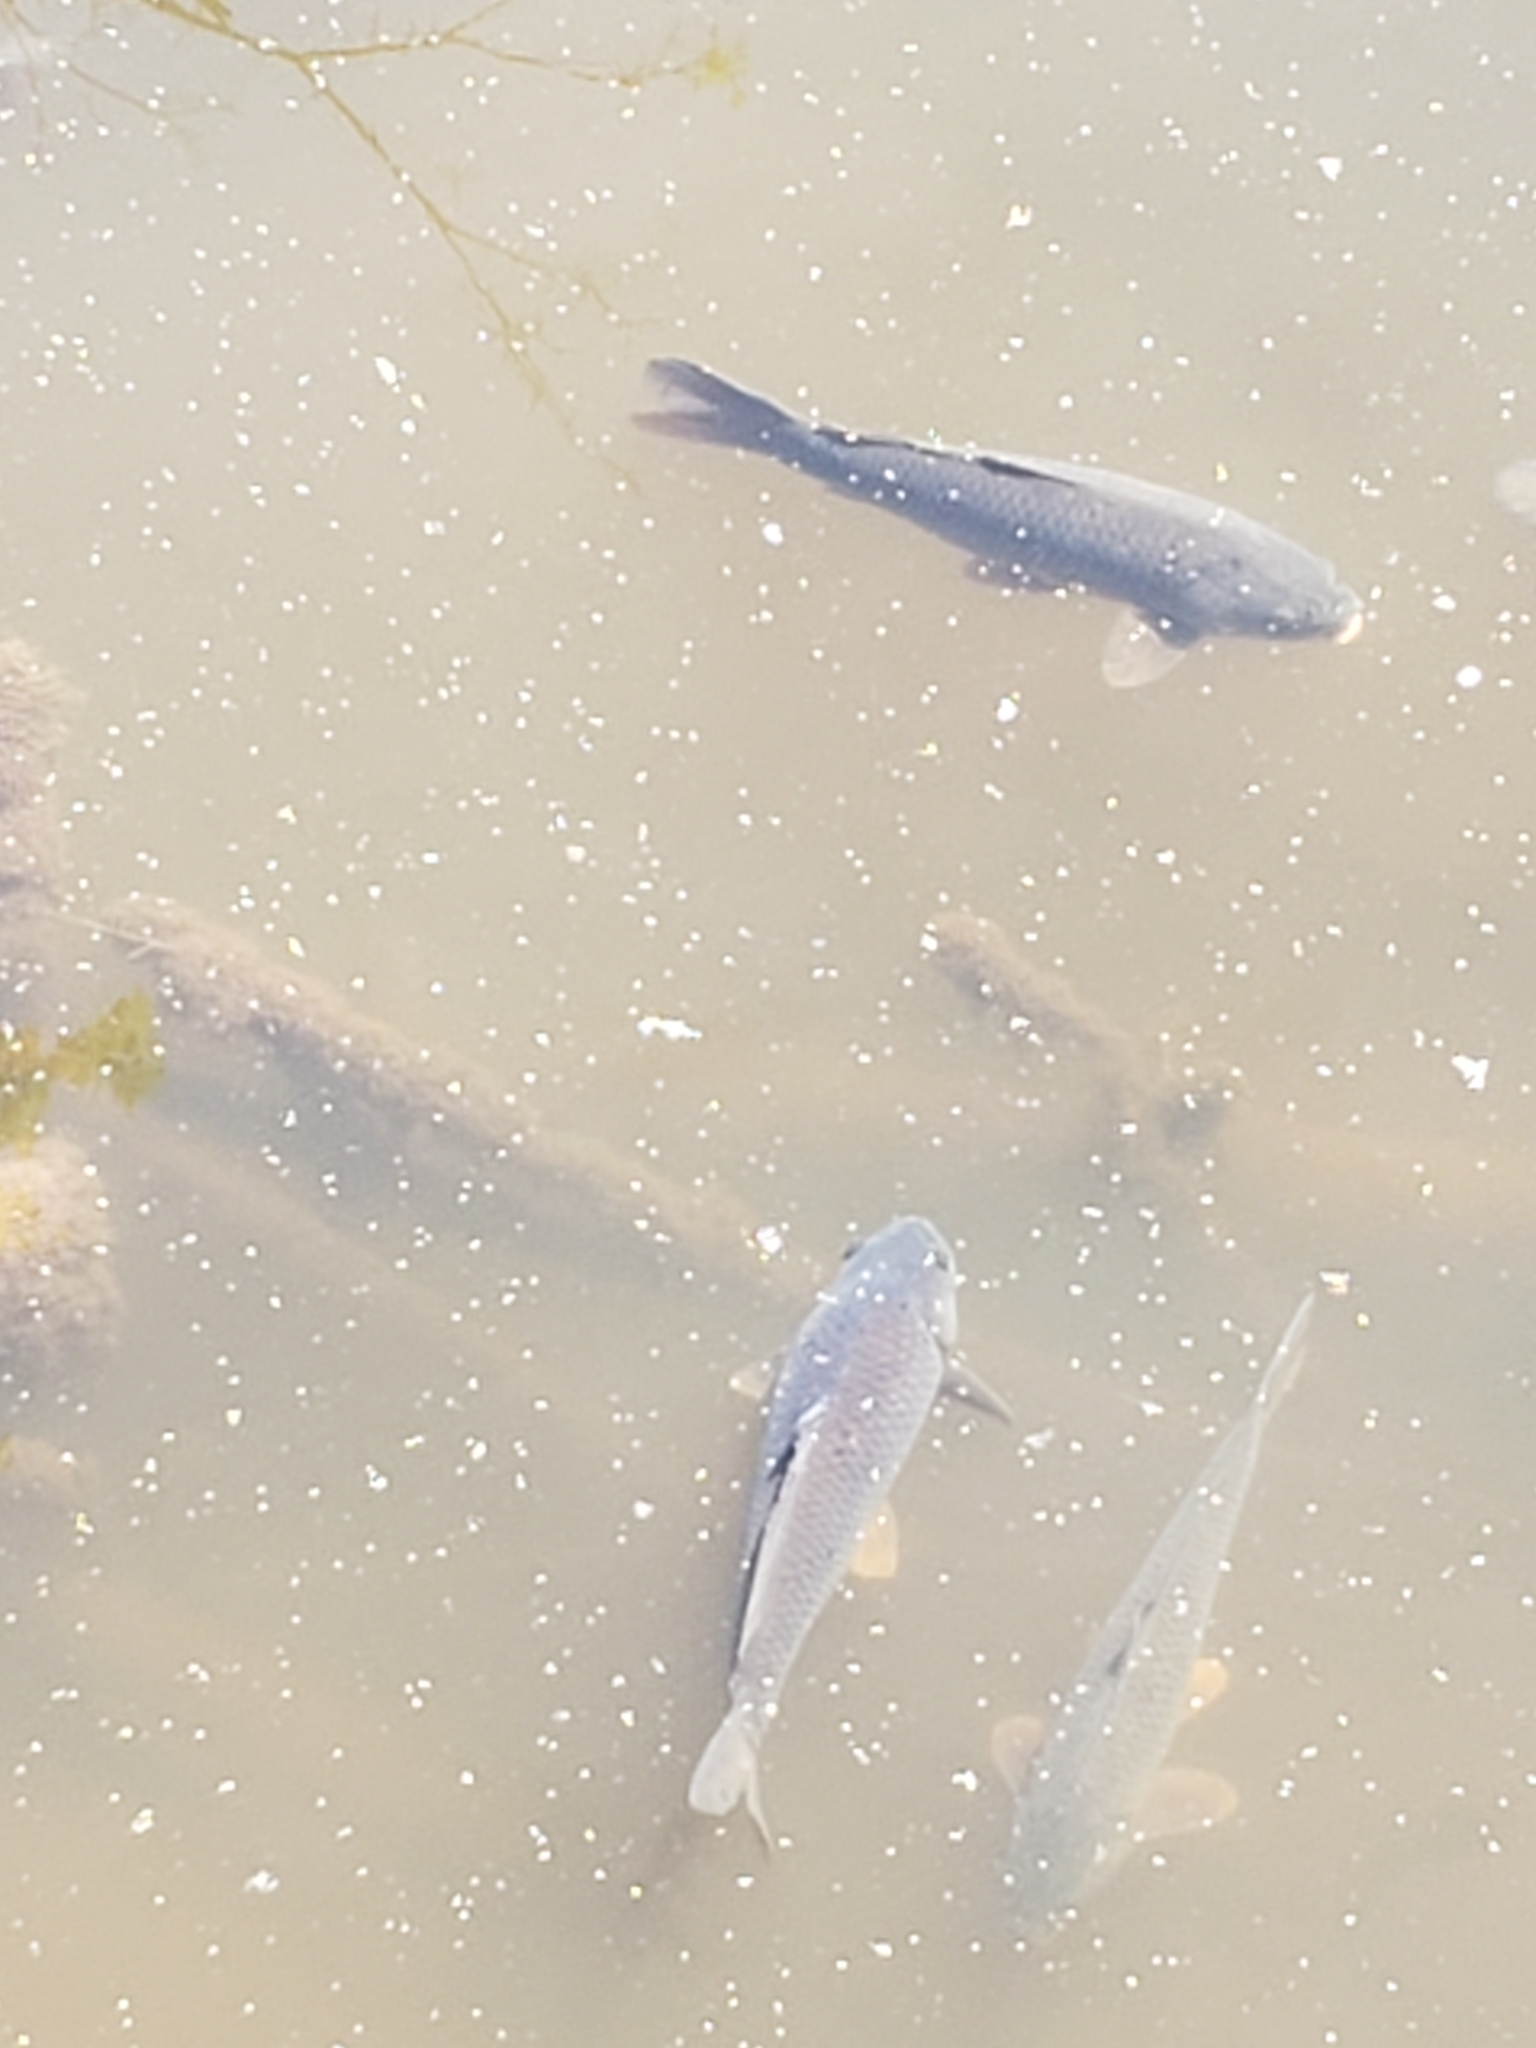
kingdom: Animalia
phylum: Chordata
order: Cypriniformes
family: Cyprinidae
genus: Cyprinus
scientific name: Cyprinus carpio
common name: Common carp
